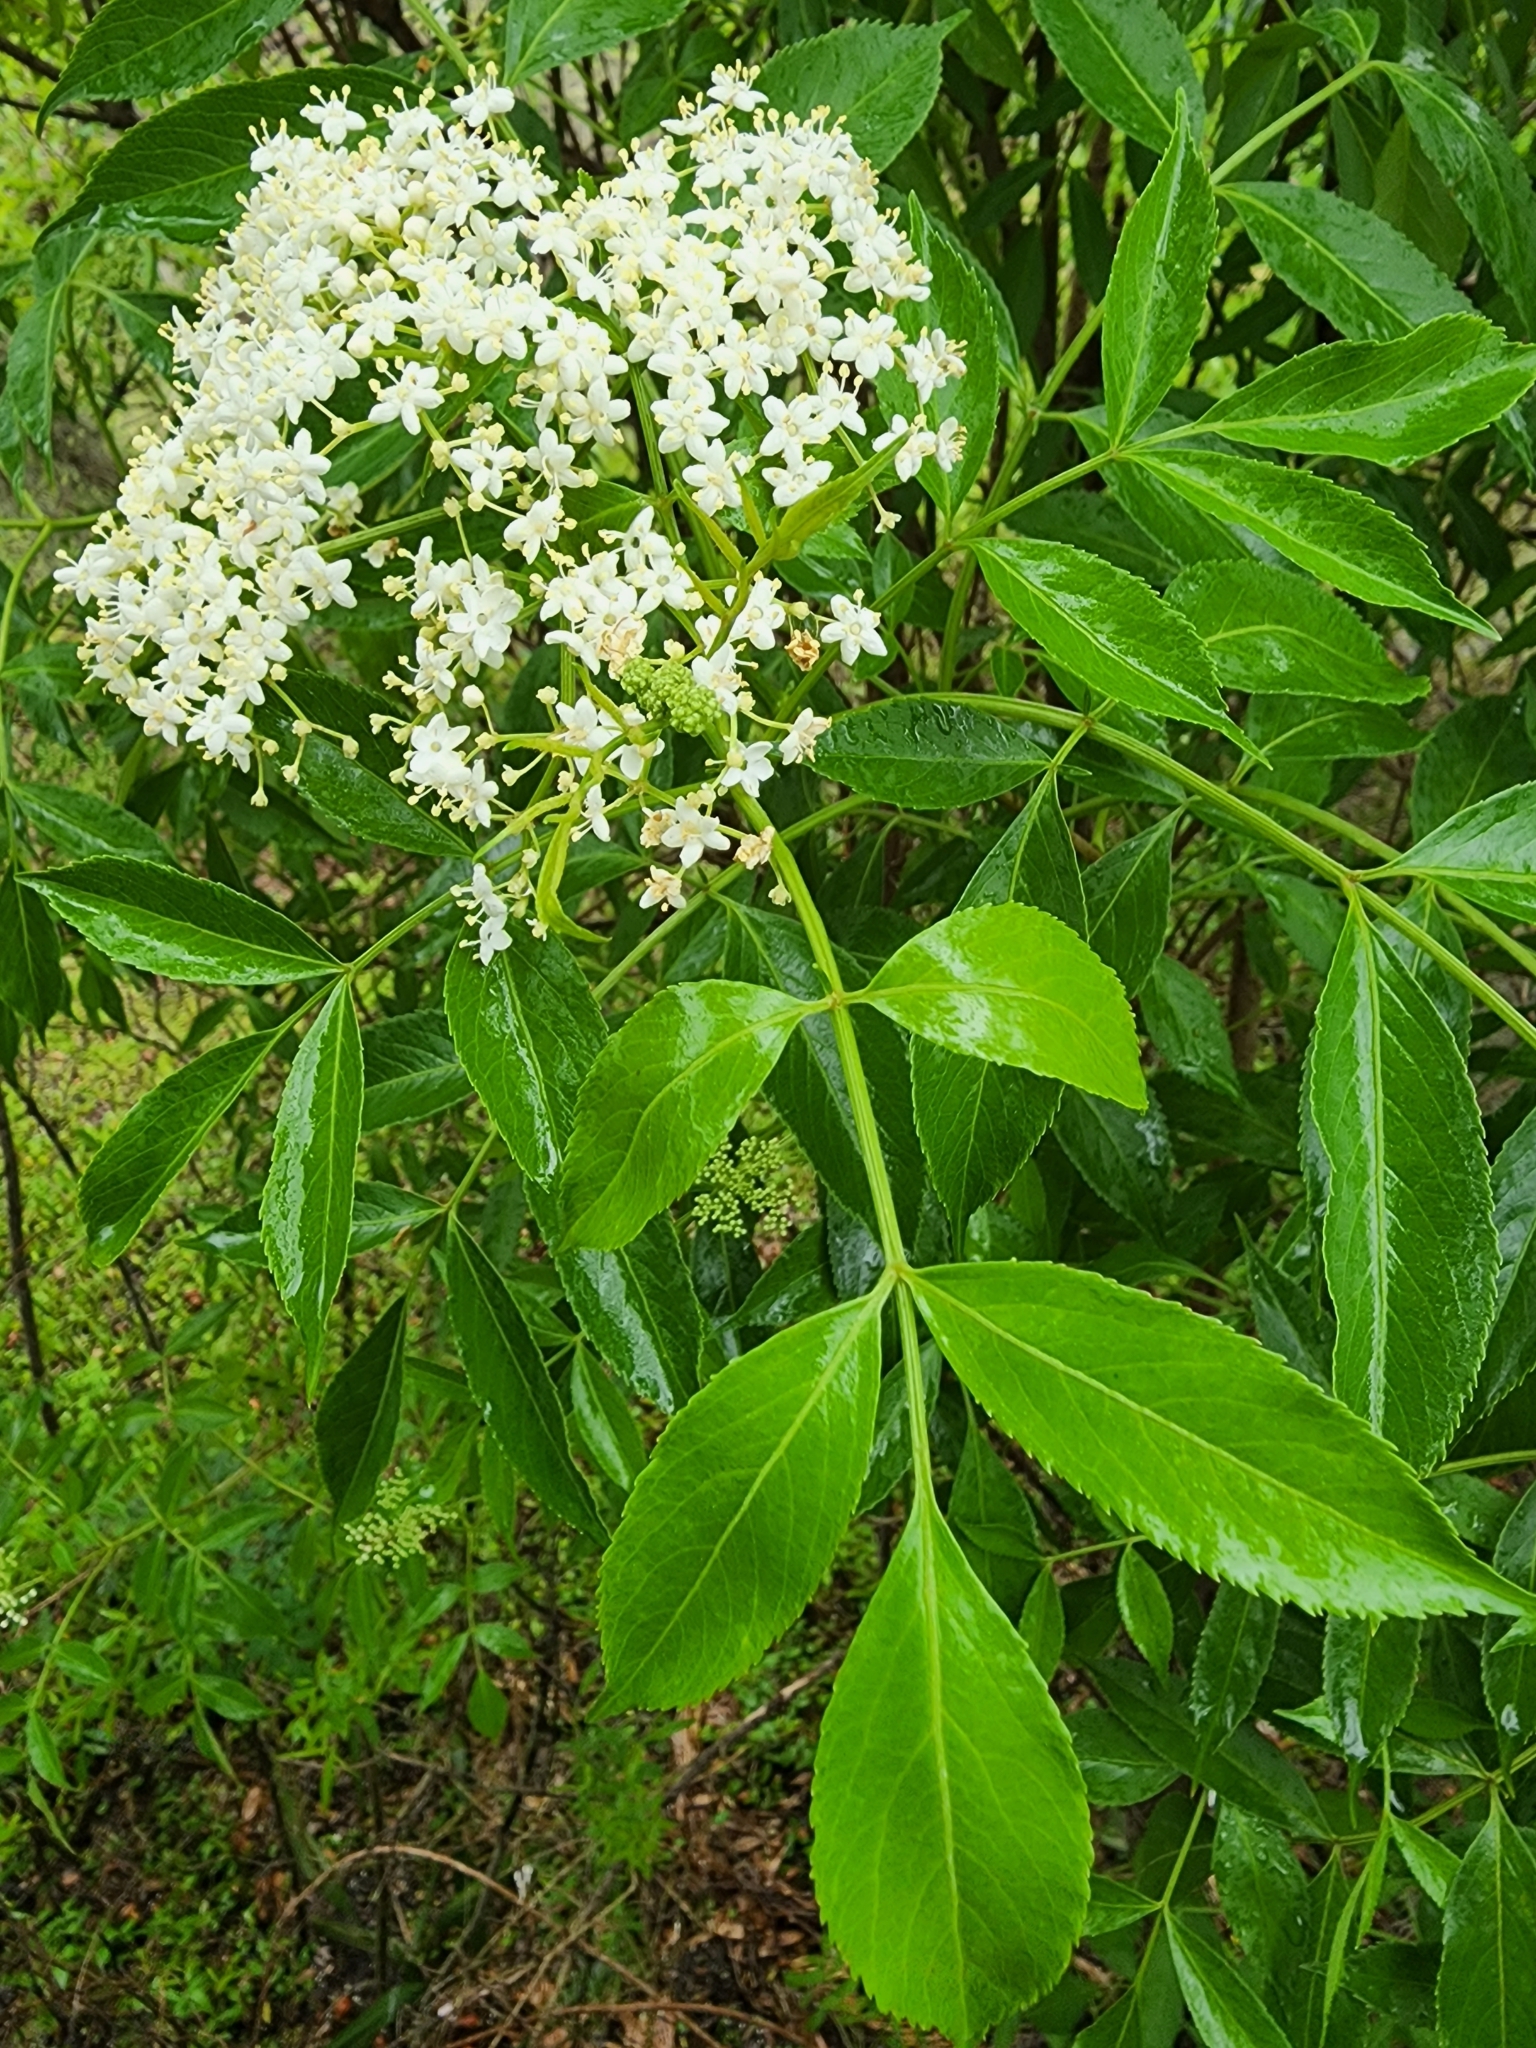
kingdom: Plantae
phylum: Tracheophyta
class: Magnoliopsida
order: Dipsacales
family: Viburnaceae
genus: Sambucus
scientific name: Sambucus canadensis
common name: American elder
